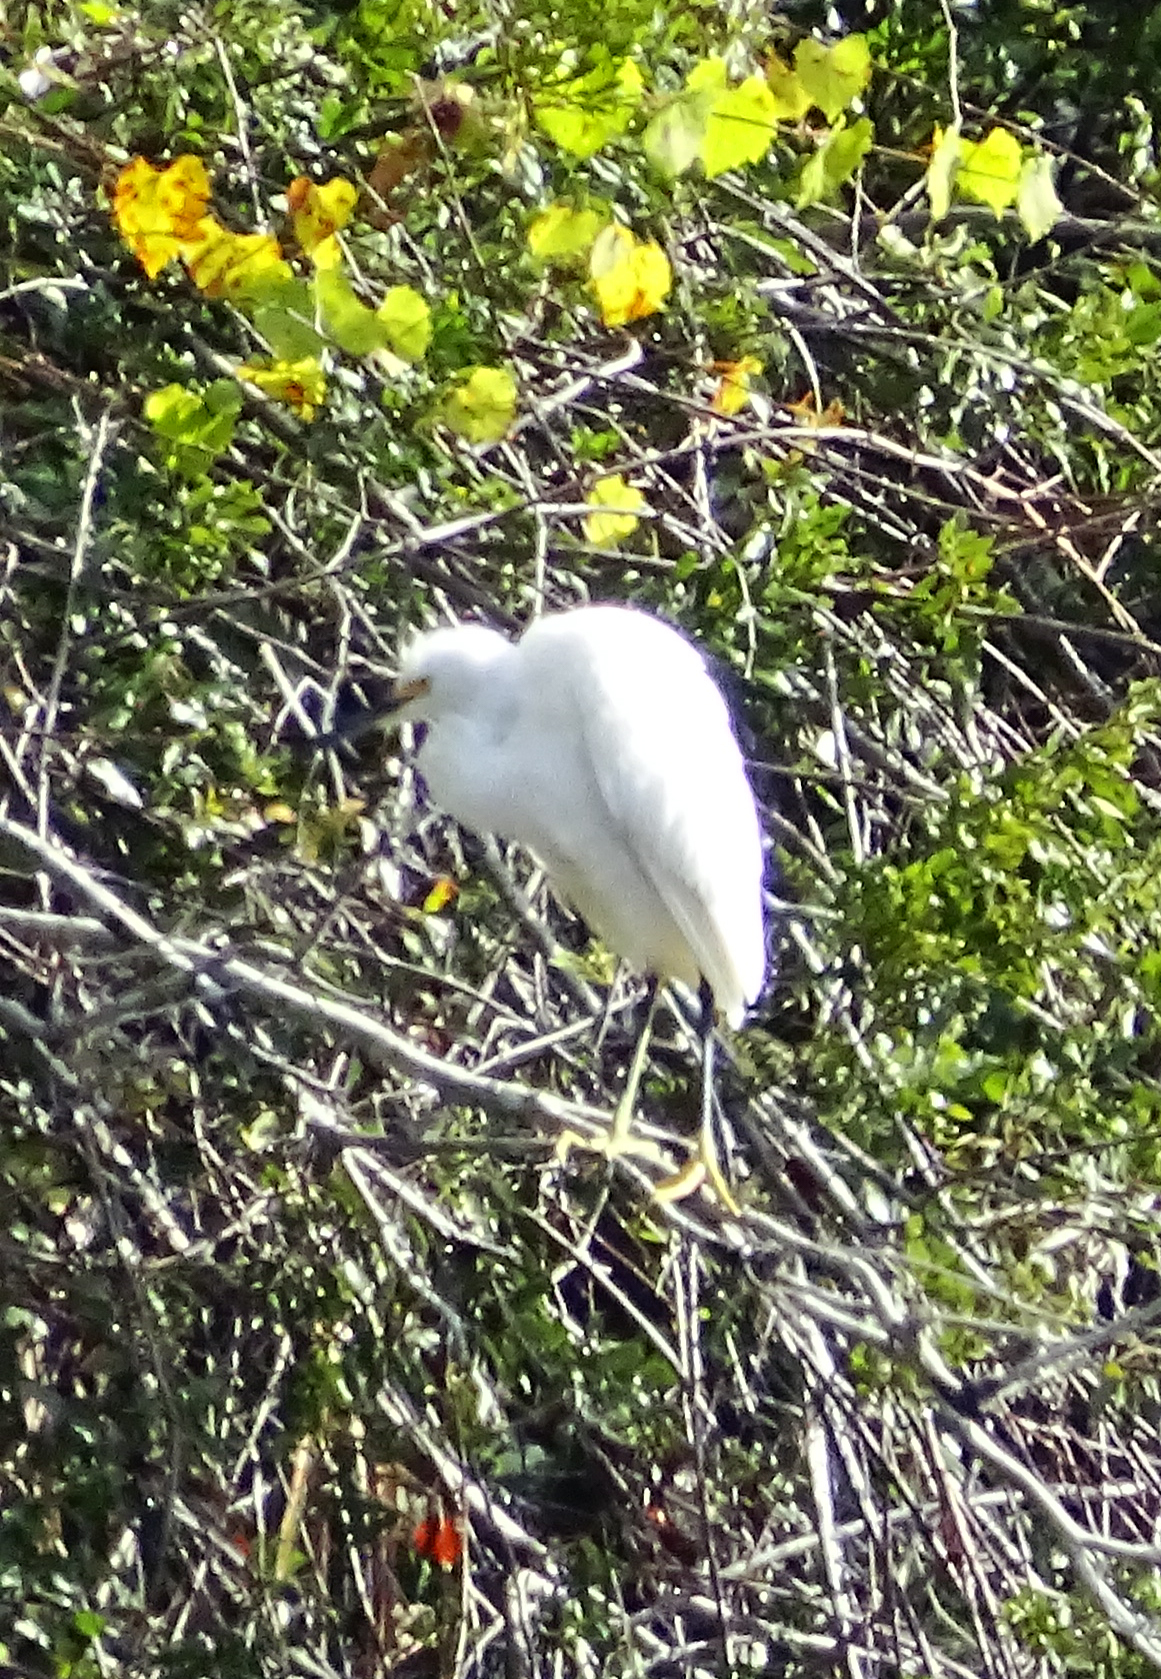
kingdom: Animalia
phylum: Chordata
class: Aves
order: Pelecaniformes
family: Ardeidae
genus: Egretta
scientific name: Egretta thula
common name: Snowy egret
